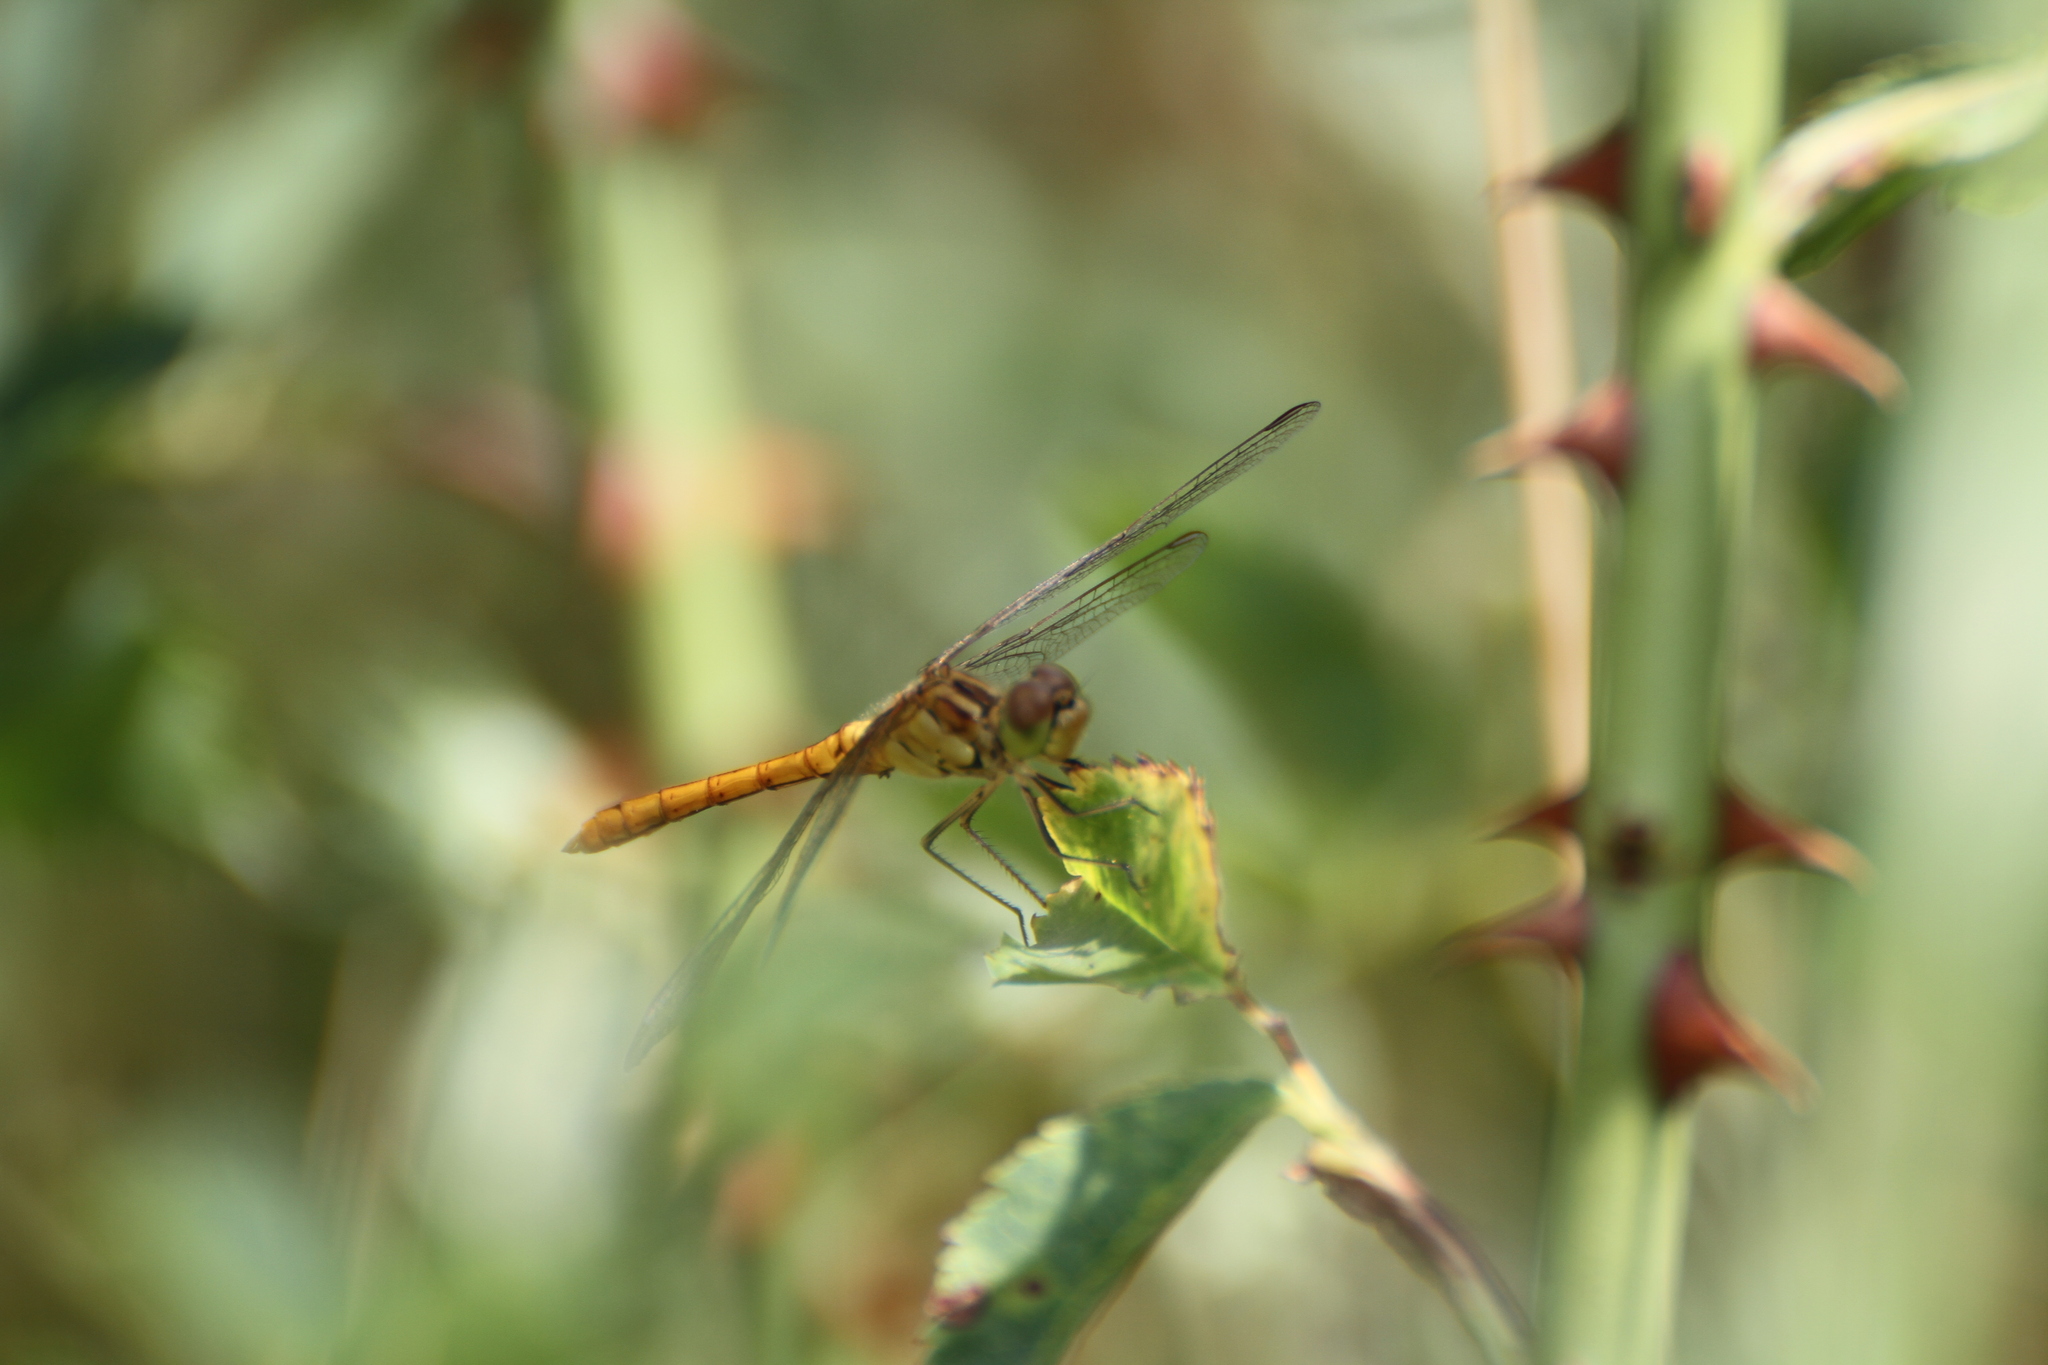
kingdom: Animalia
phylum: Arthropoda
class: Insecta
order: Odonata
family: Libellulidae
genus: Sympetrum
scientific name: Sympetrum meridionale
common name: Southern darter
